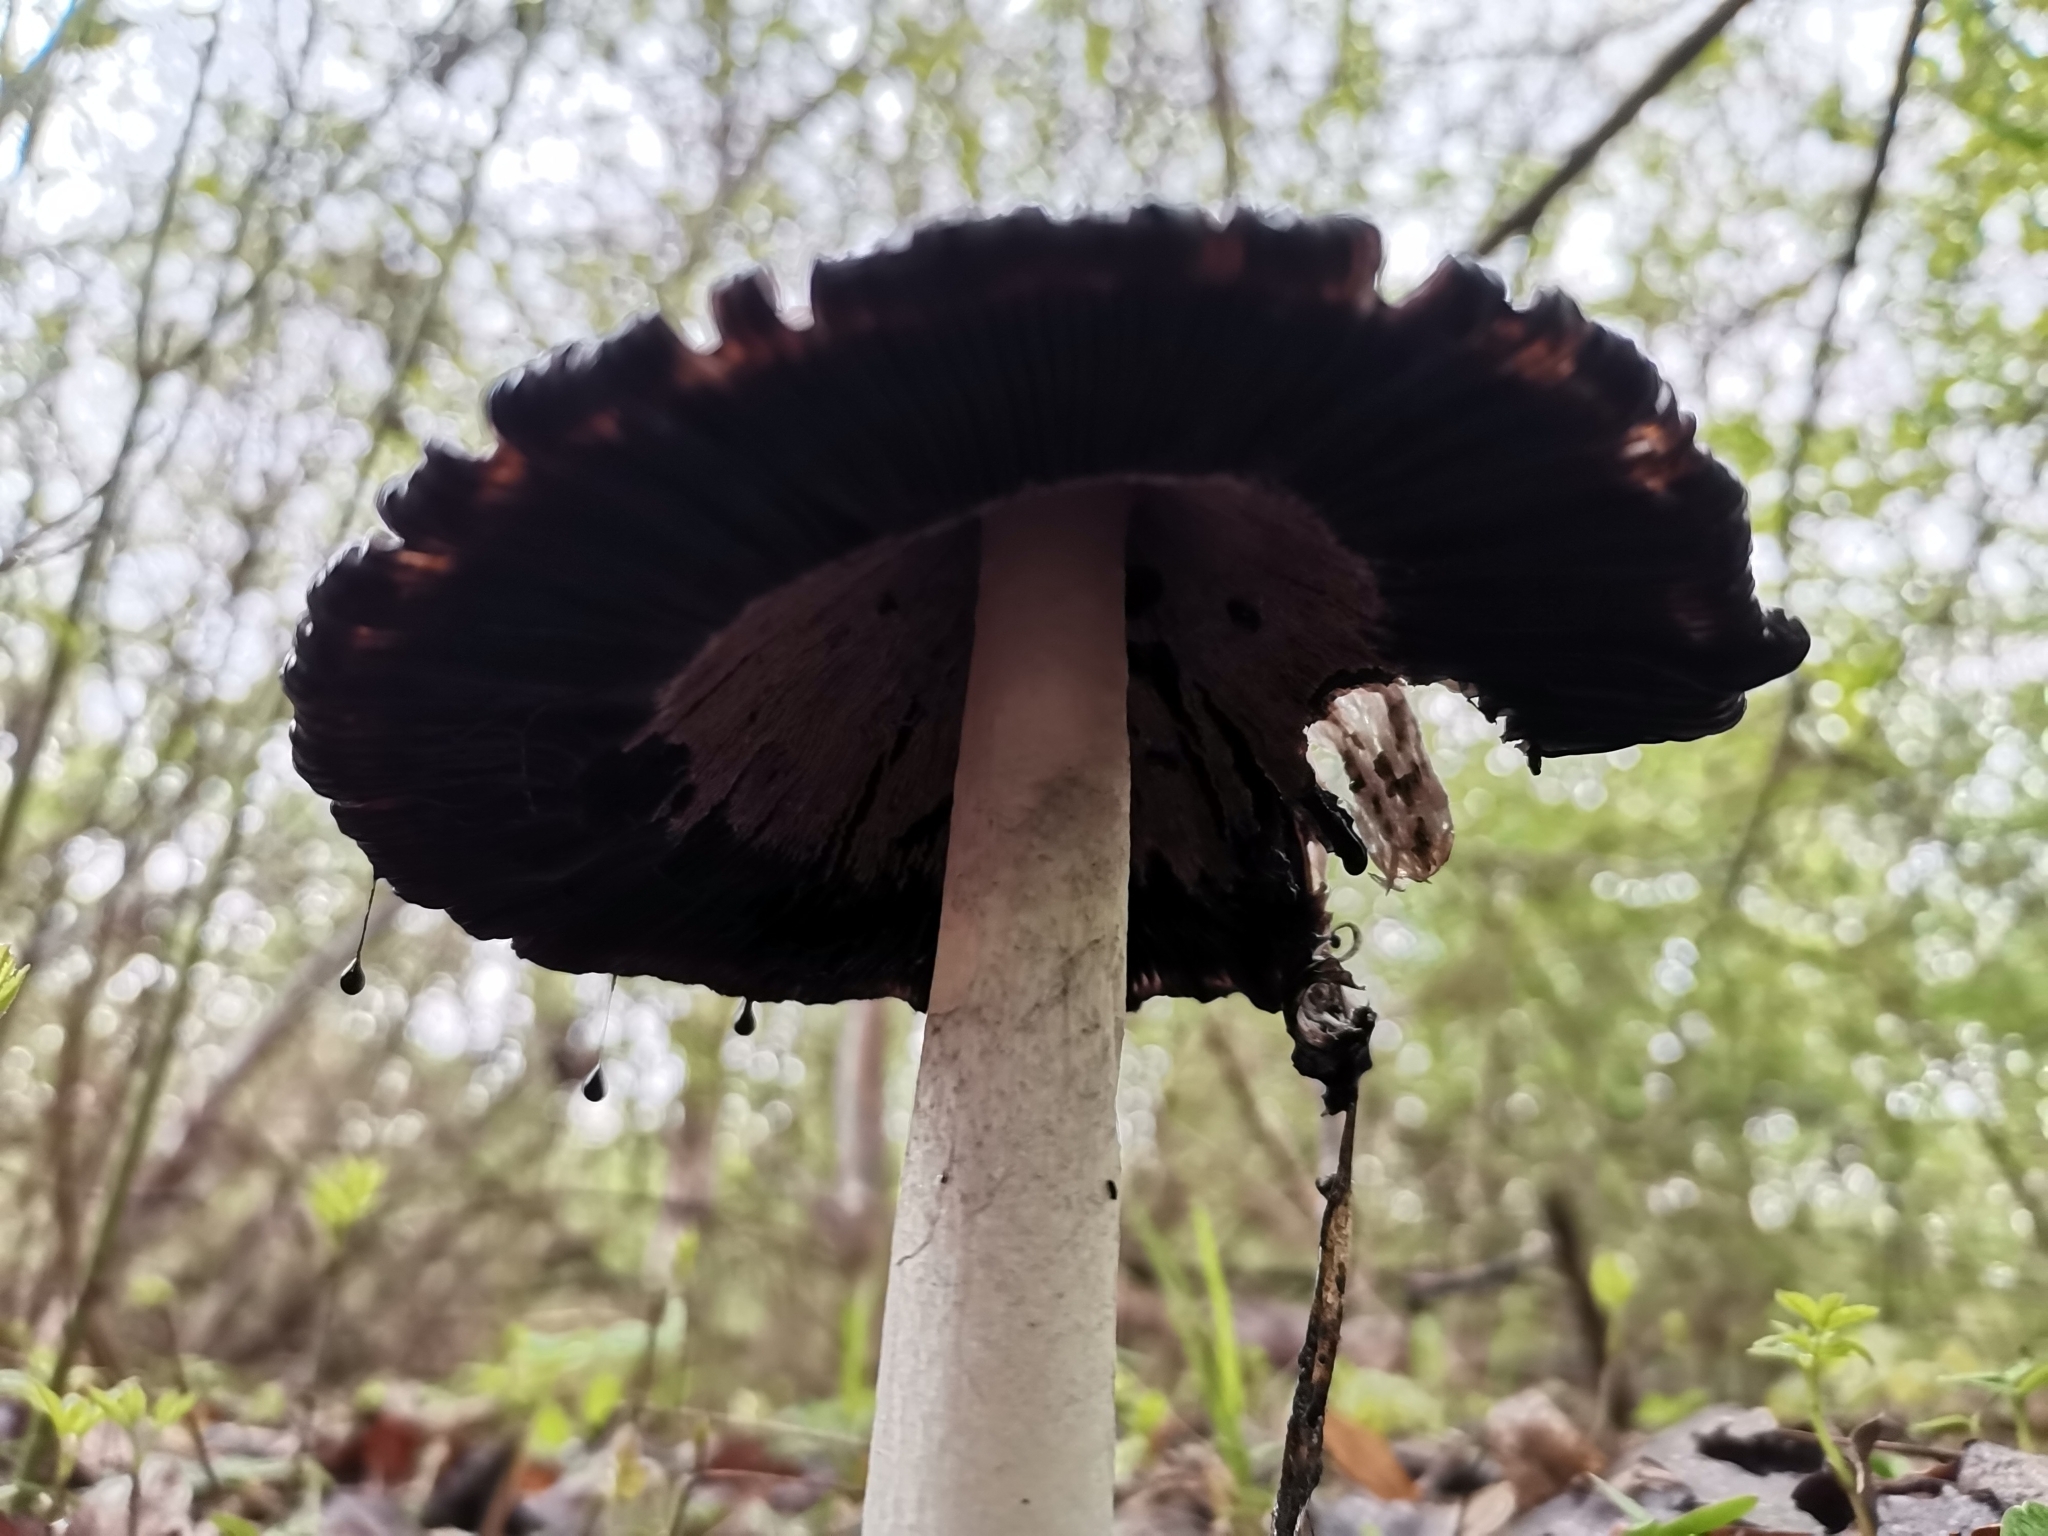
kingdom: Fungi
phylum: Basidiomycota
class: Agaricomycetes
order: Agaricales
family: Agaricaceae
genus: Coprinus
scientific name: Coprinus comatus
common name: Lawyer's wig
